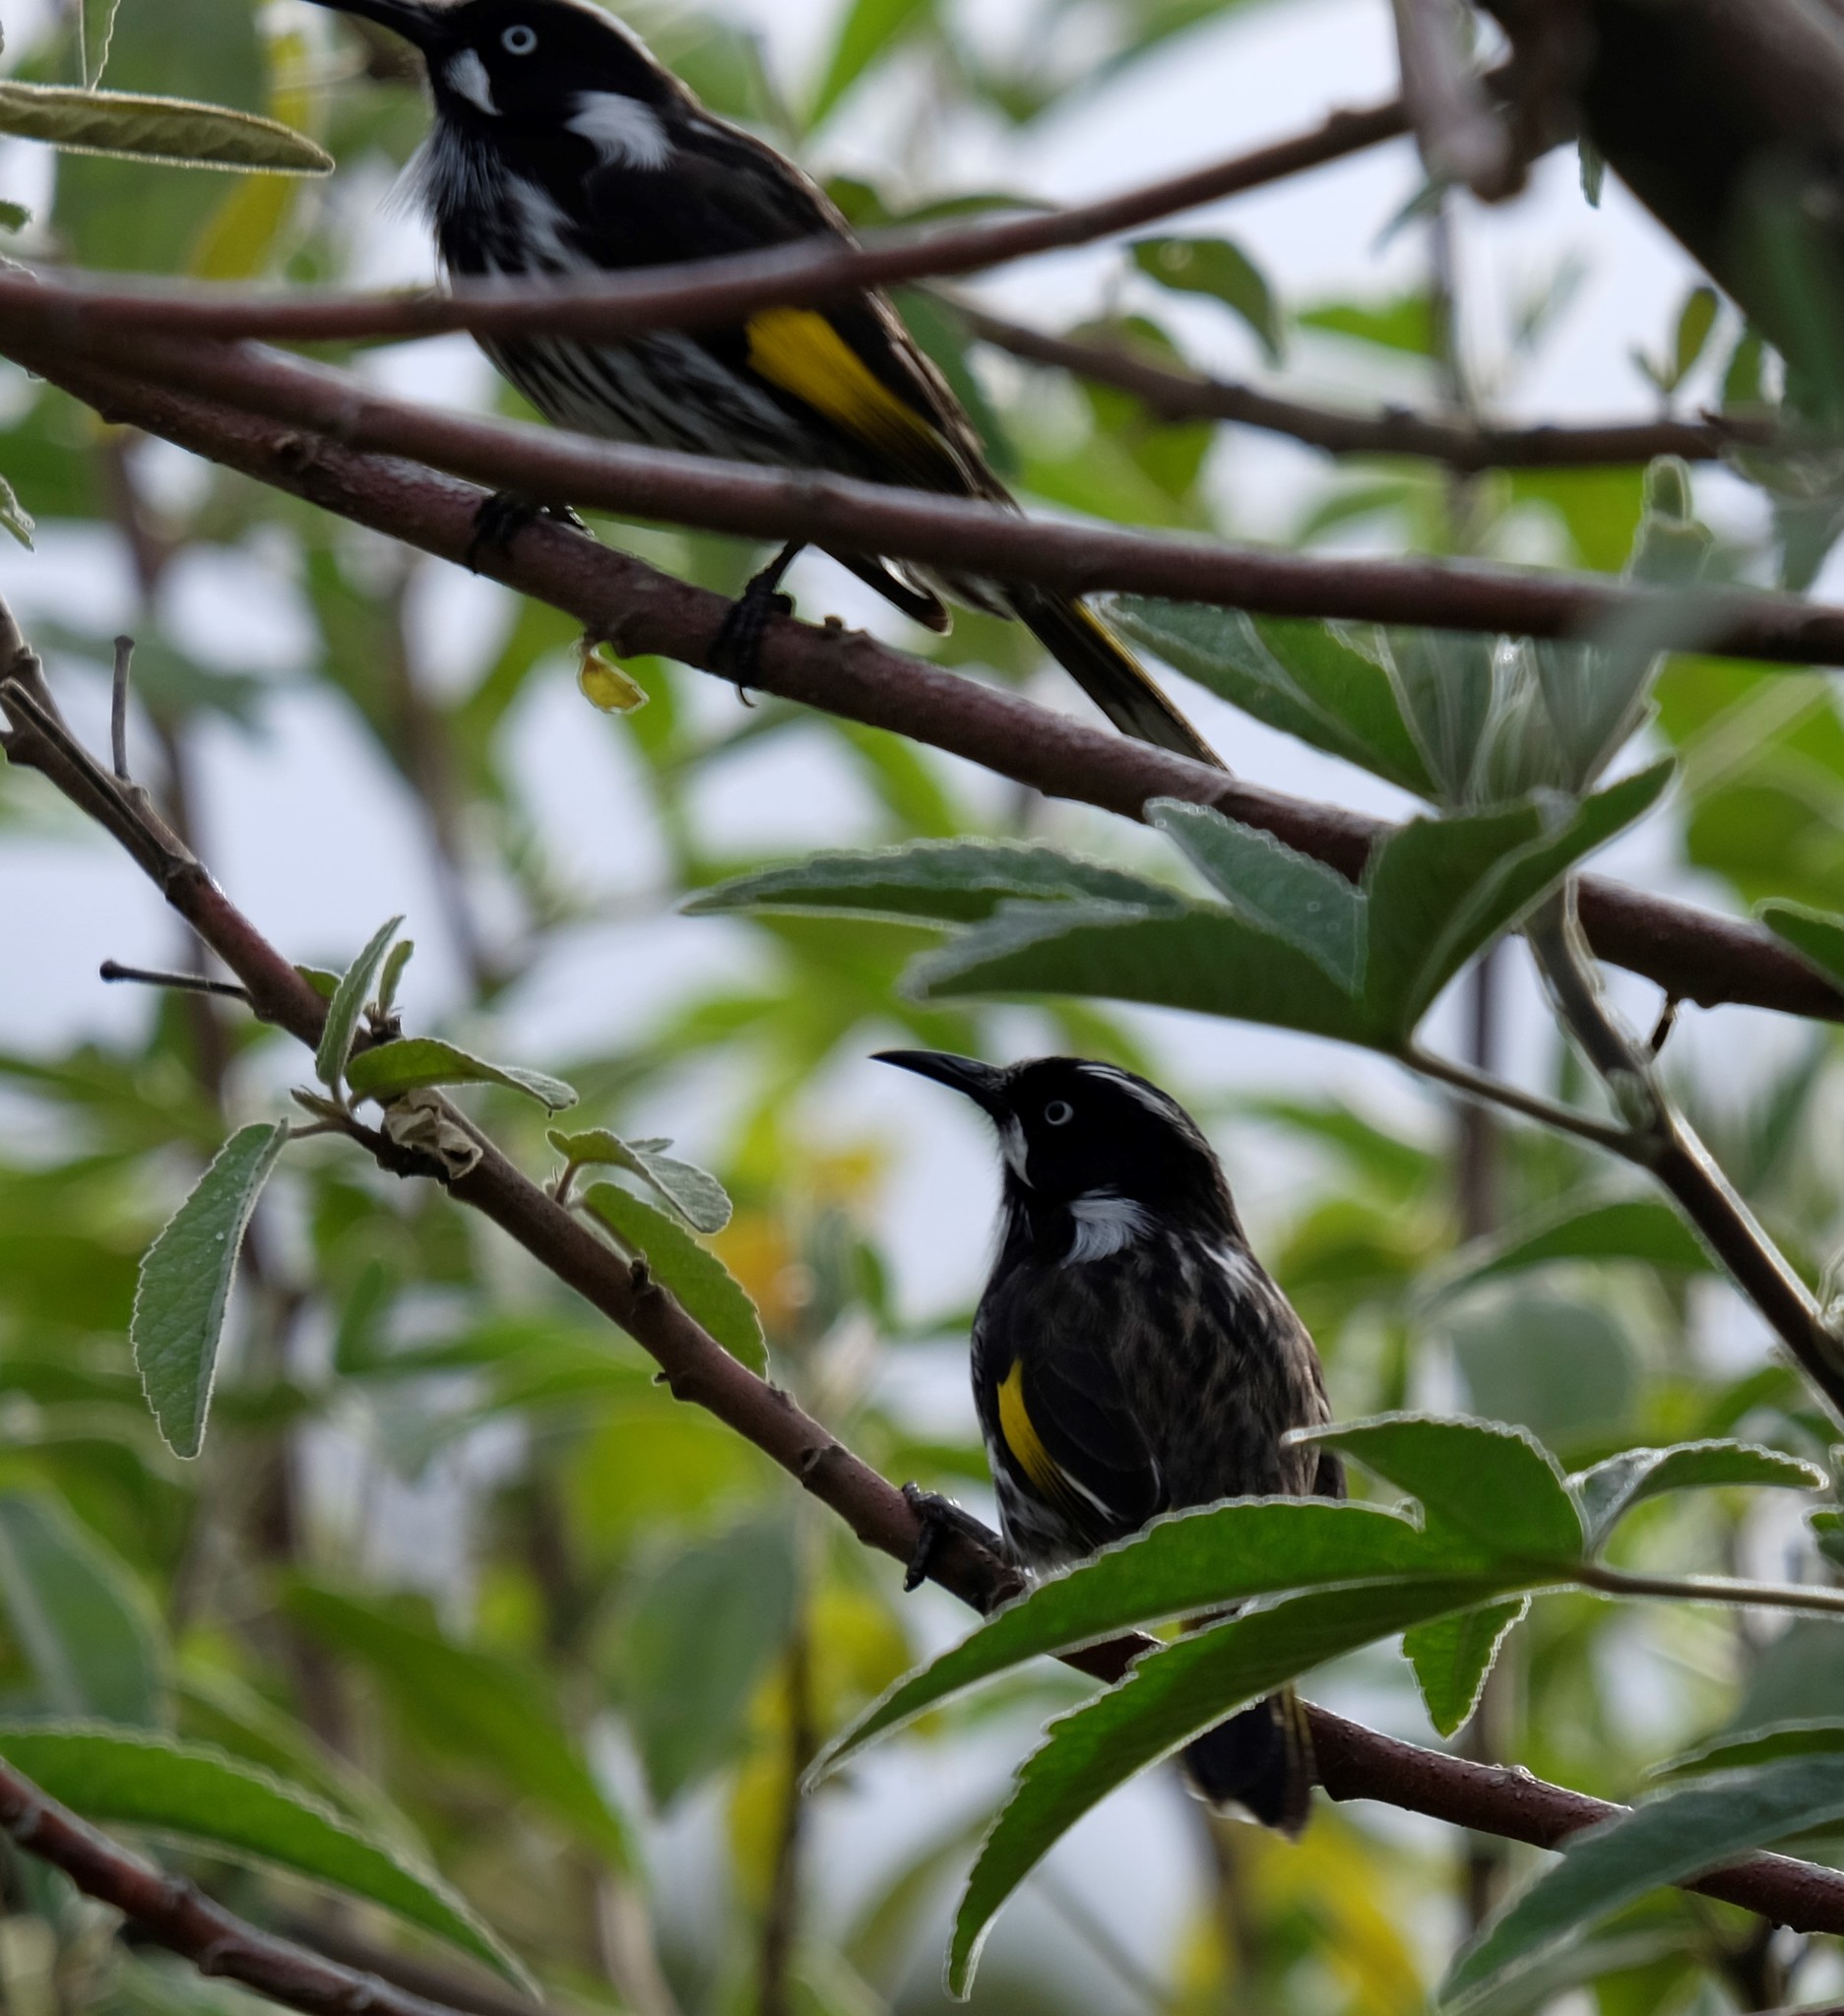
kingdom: Animalia
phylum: Chordata
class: Aves
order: Passeriformes
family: Meliphagidae
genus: Phylidonyris
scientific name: Phylidonyris novaehollandiae
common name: New holland honeyeater
